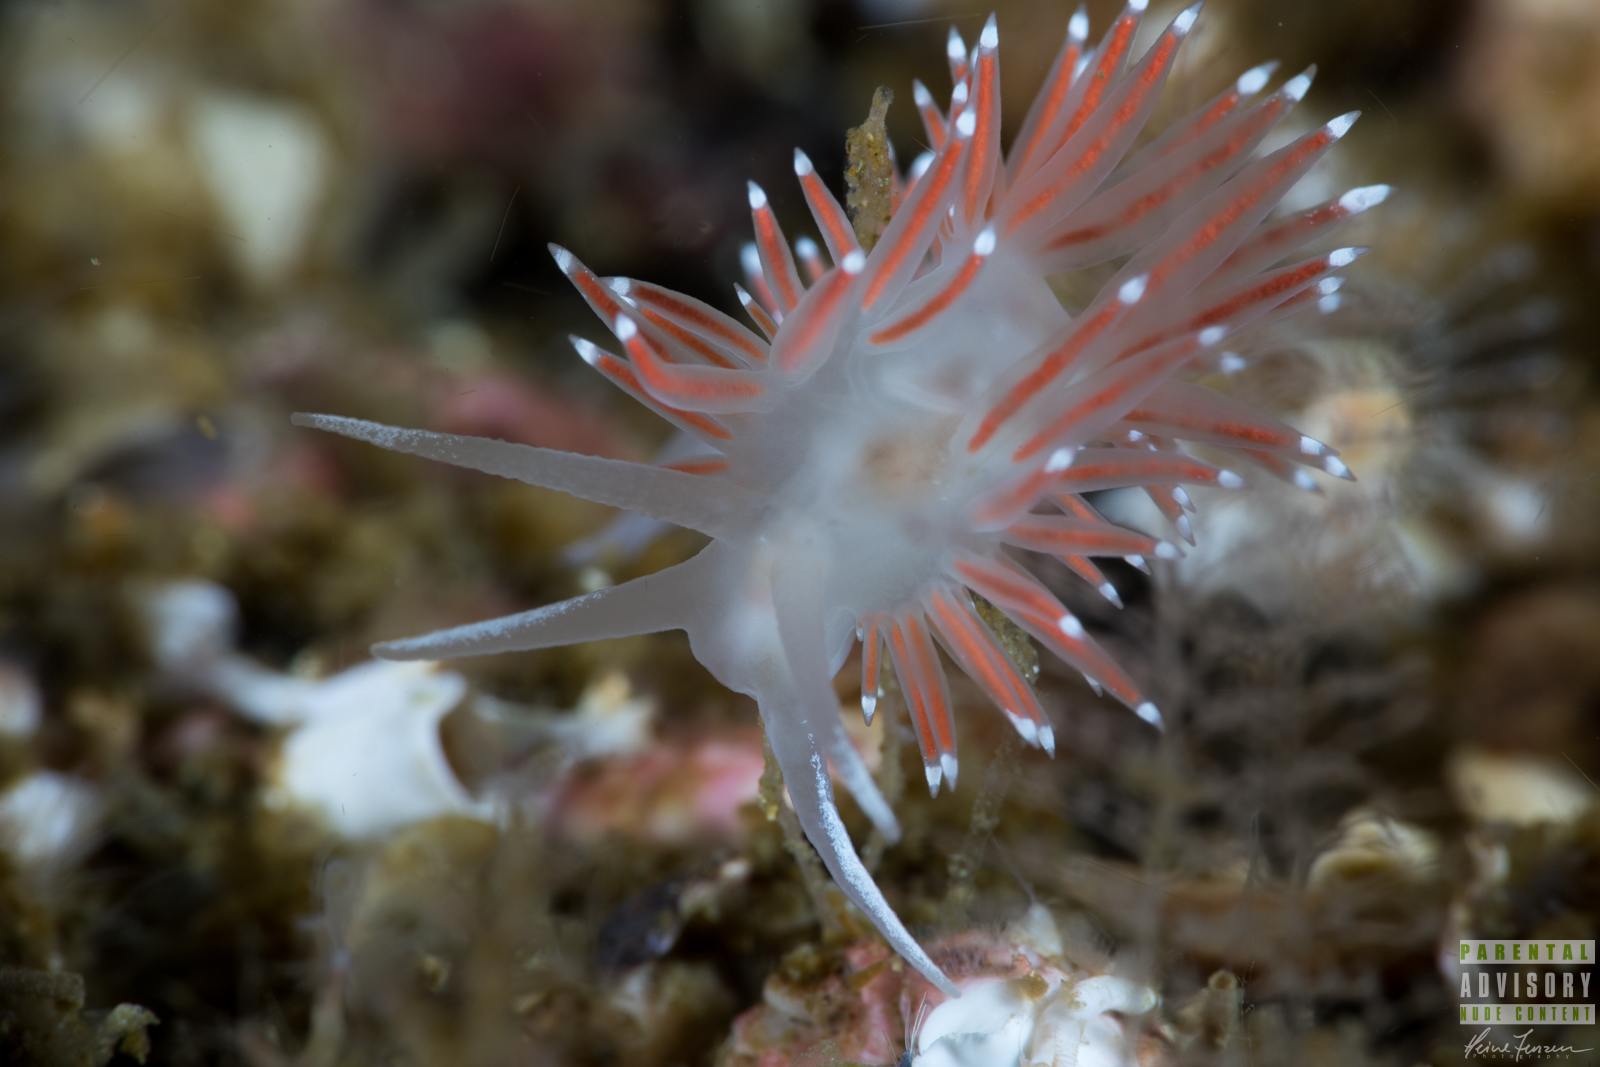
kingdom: Animalia
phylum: Mollusca
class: Gastropoda
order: Nudibranchia
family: Coryphellidae
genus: Coryphella
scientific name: Coryphella browni
